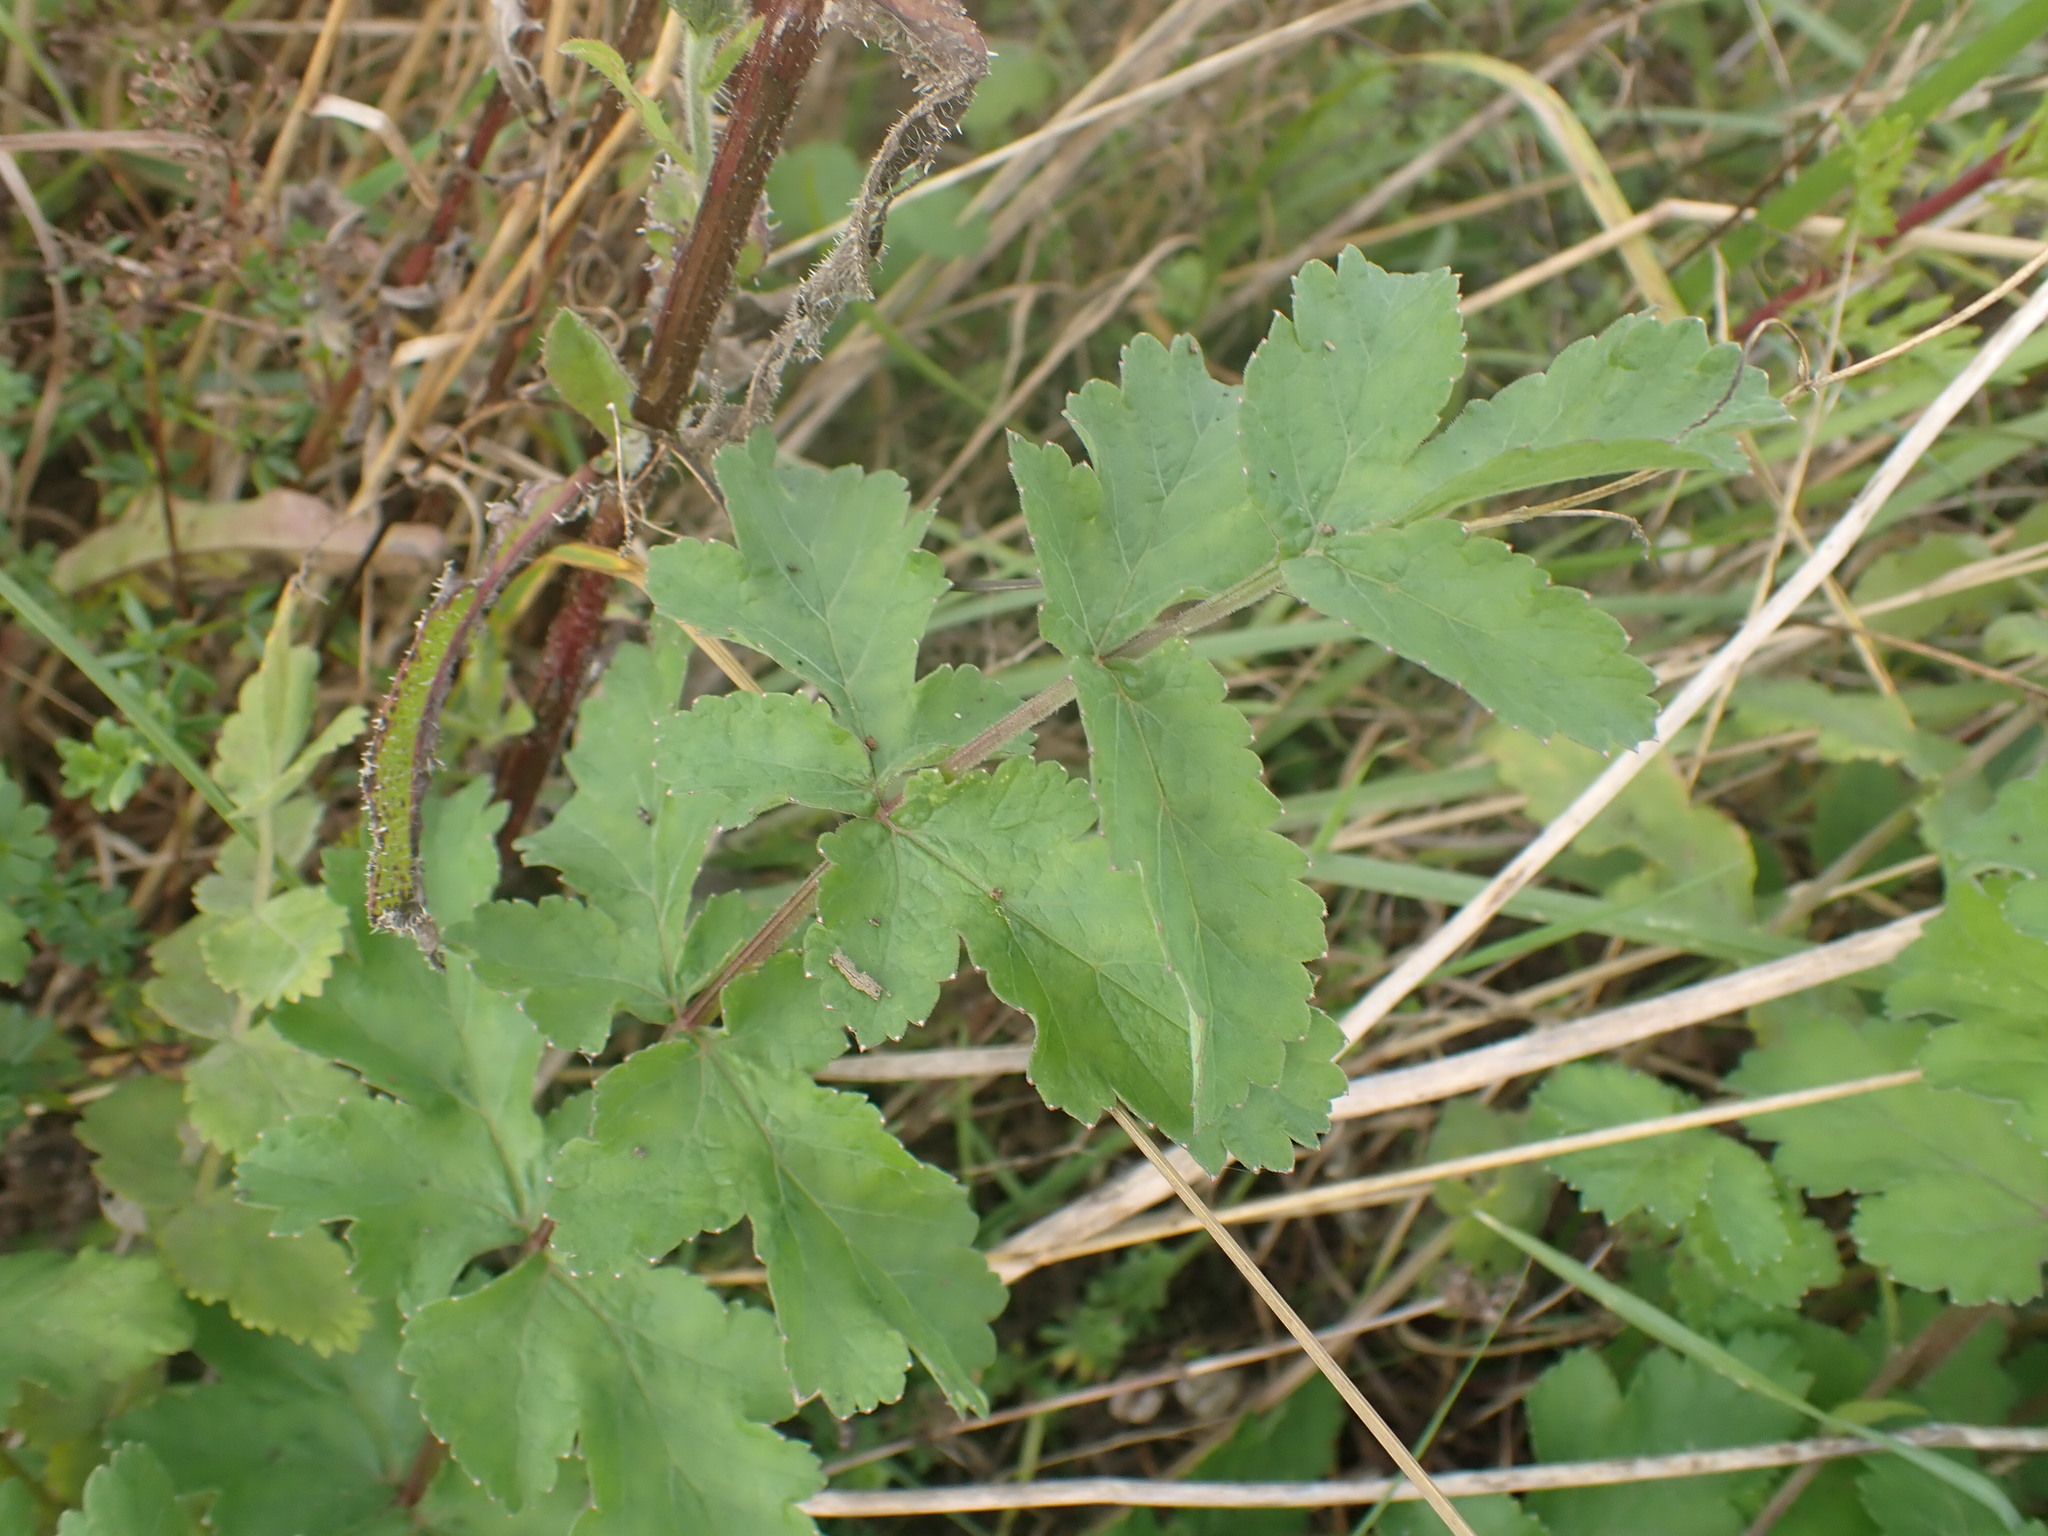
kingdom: Plantae
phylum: Tracheophyta
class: Magnoliopsida
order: Apiales
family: Apiaceae
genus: Pastinaca
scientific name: Pastinaca sativa
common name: Wild parsnip
